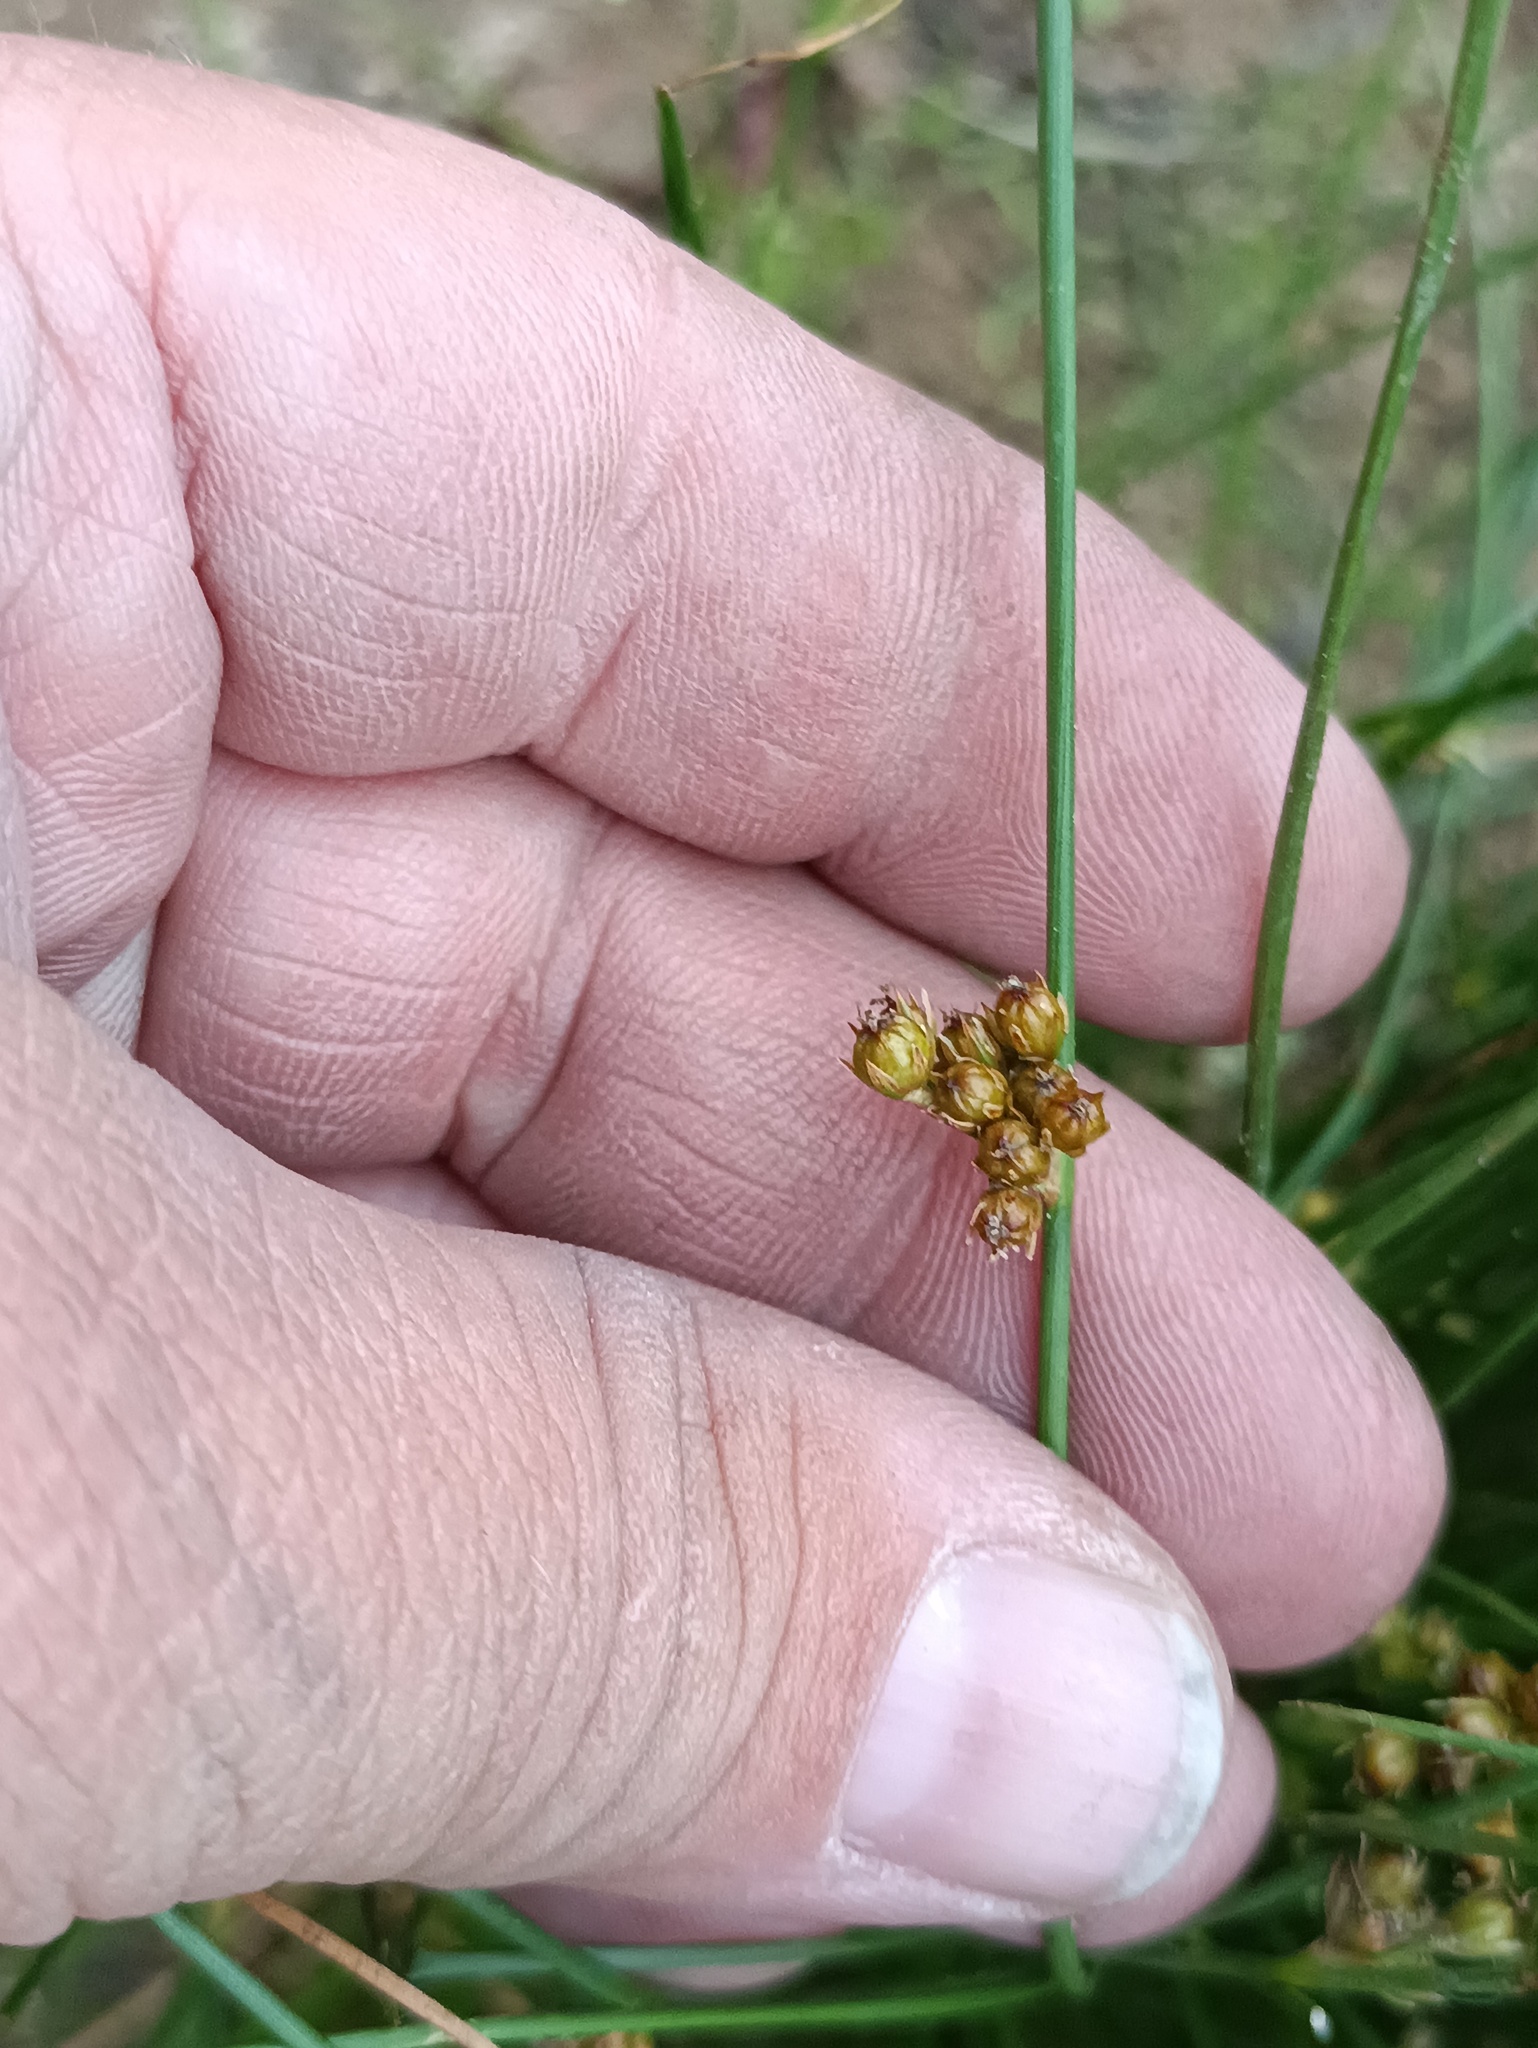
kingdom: Plantae
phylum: Tracheophyta
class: Liliopsida
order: Poales
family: Juncaceae
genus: Juncus
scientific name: Juncus filiformis
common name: Thread rush
